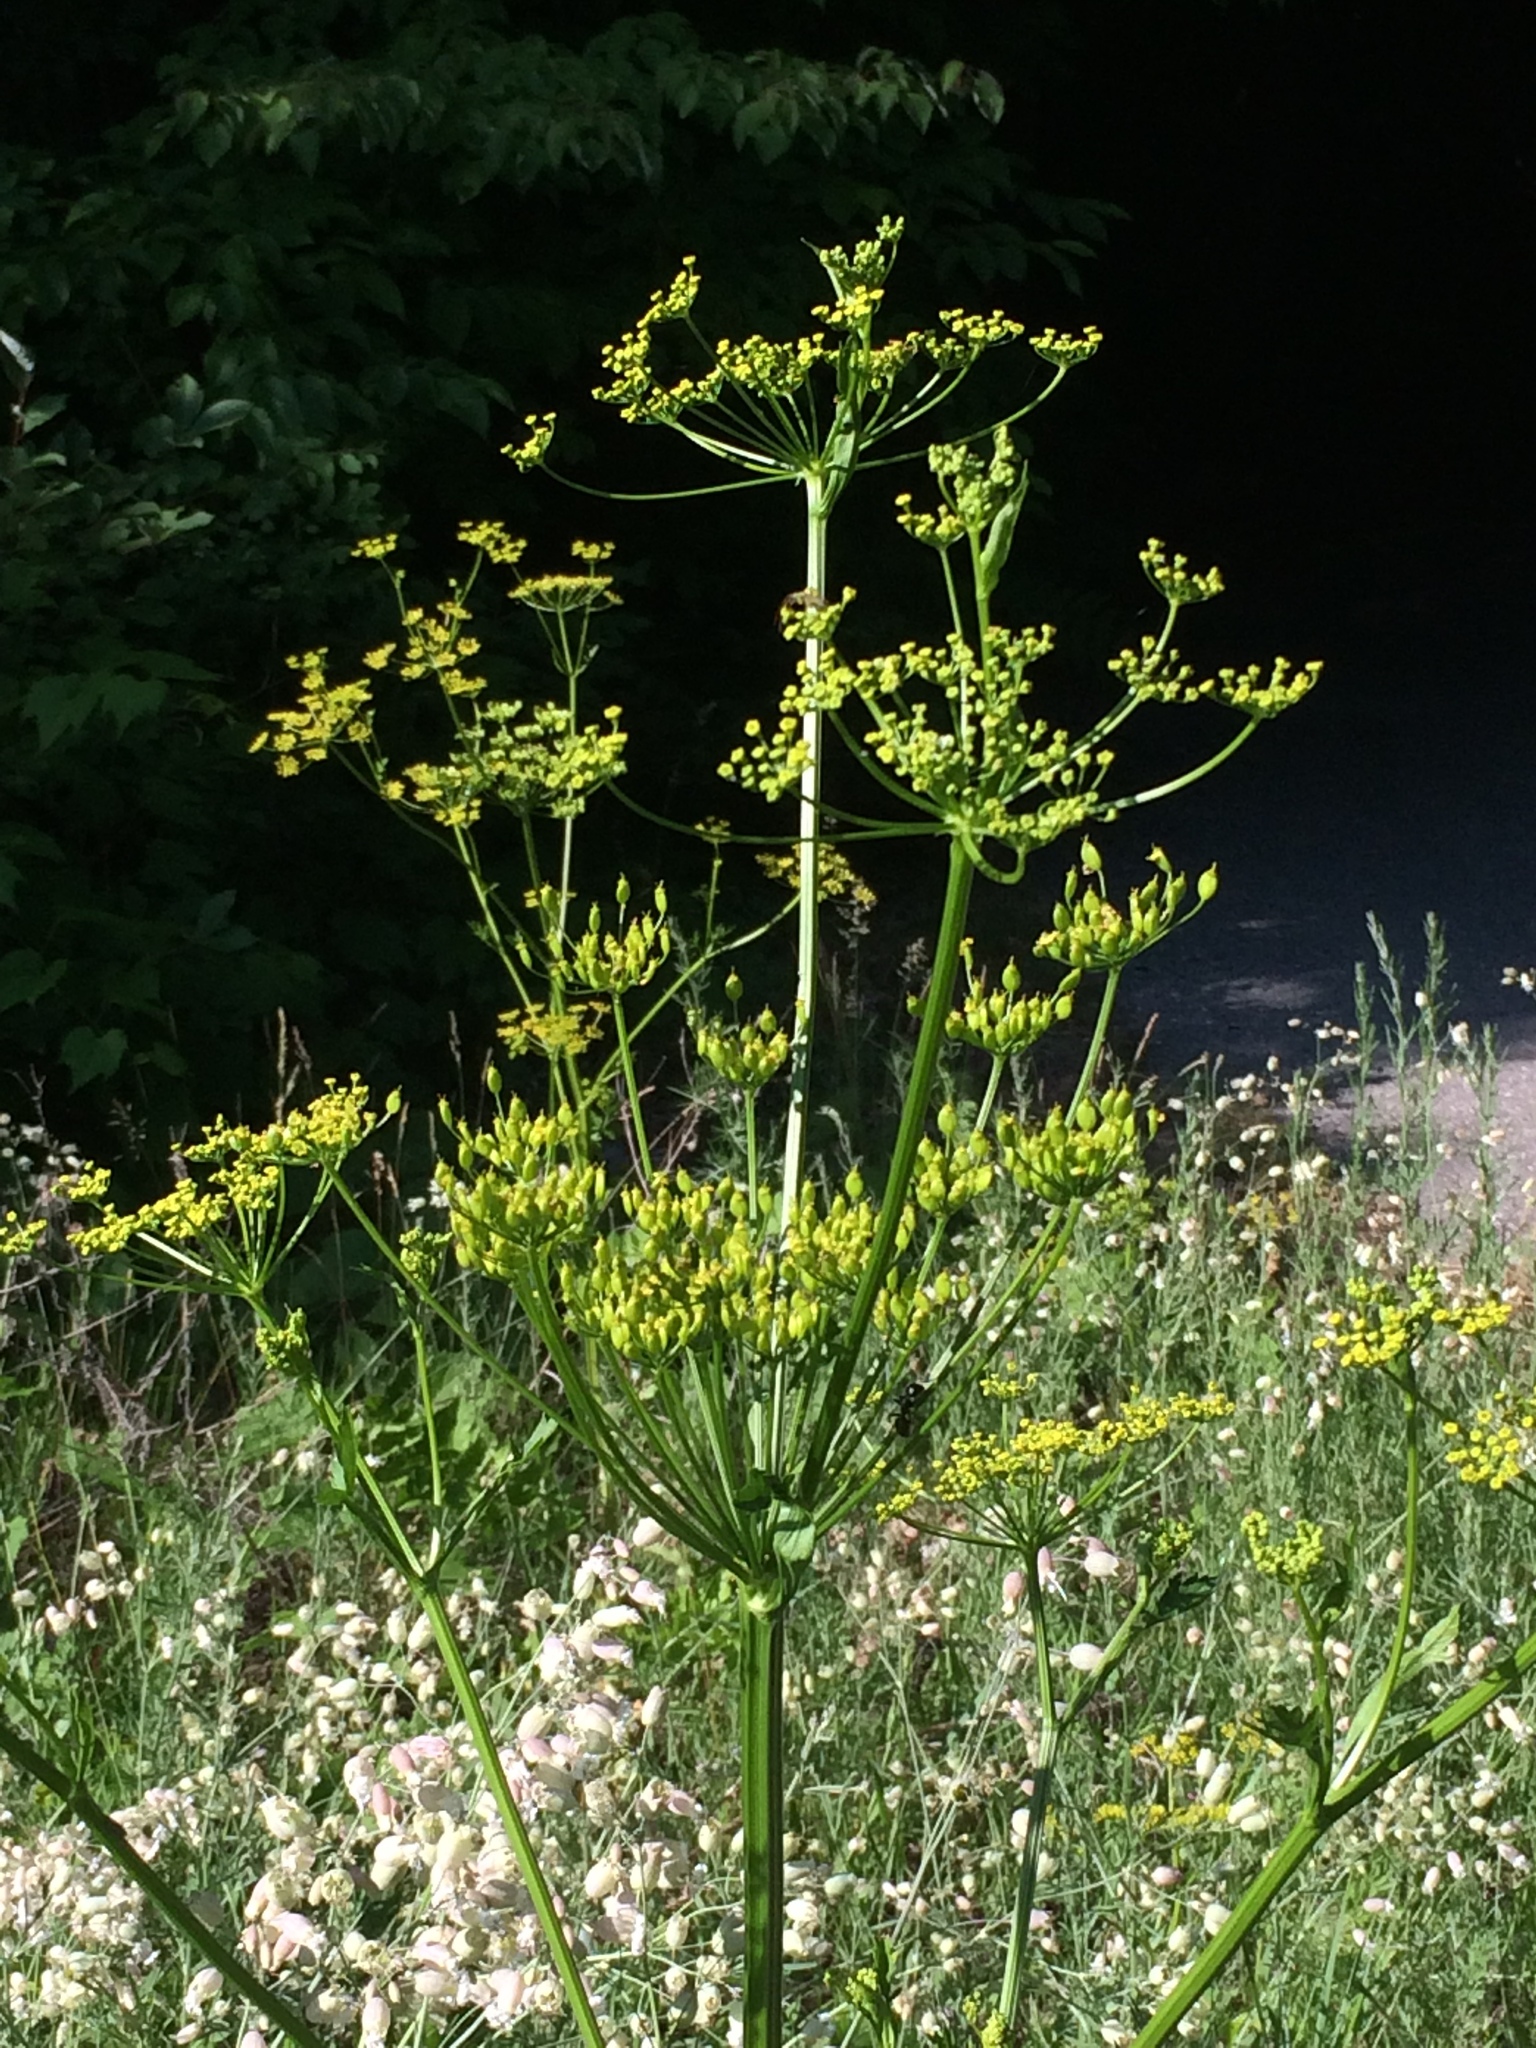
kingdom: Plantae
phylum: Tracheophyta
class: Magnoliopsida
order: Apiales
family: Apiaceae
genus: Pastinaca
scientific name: Pastinaca sativa
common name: Wild parsnip
